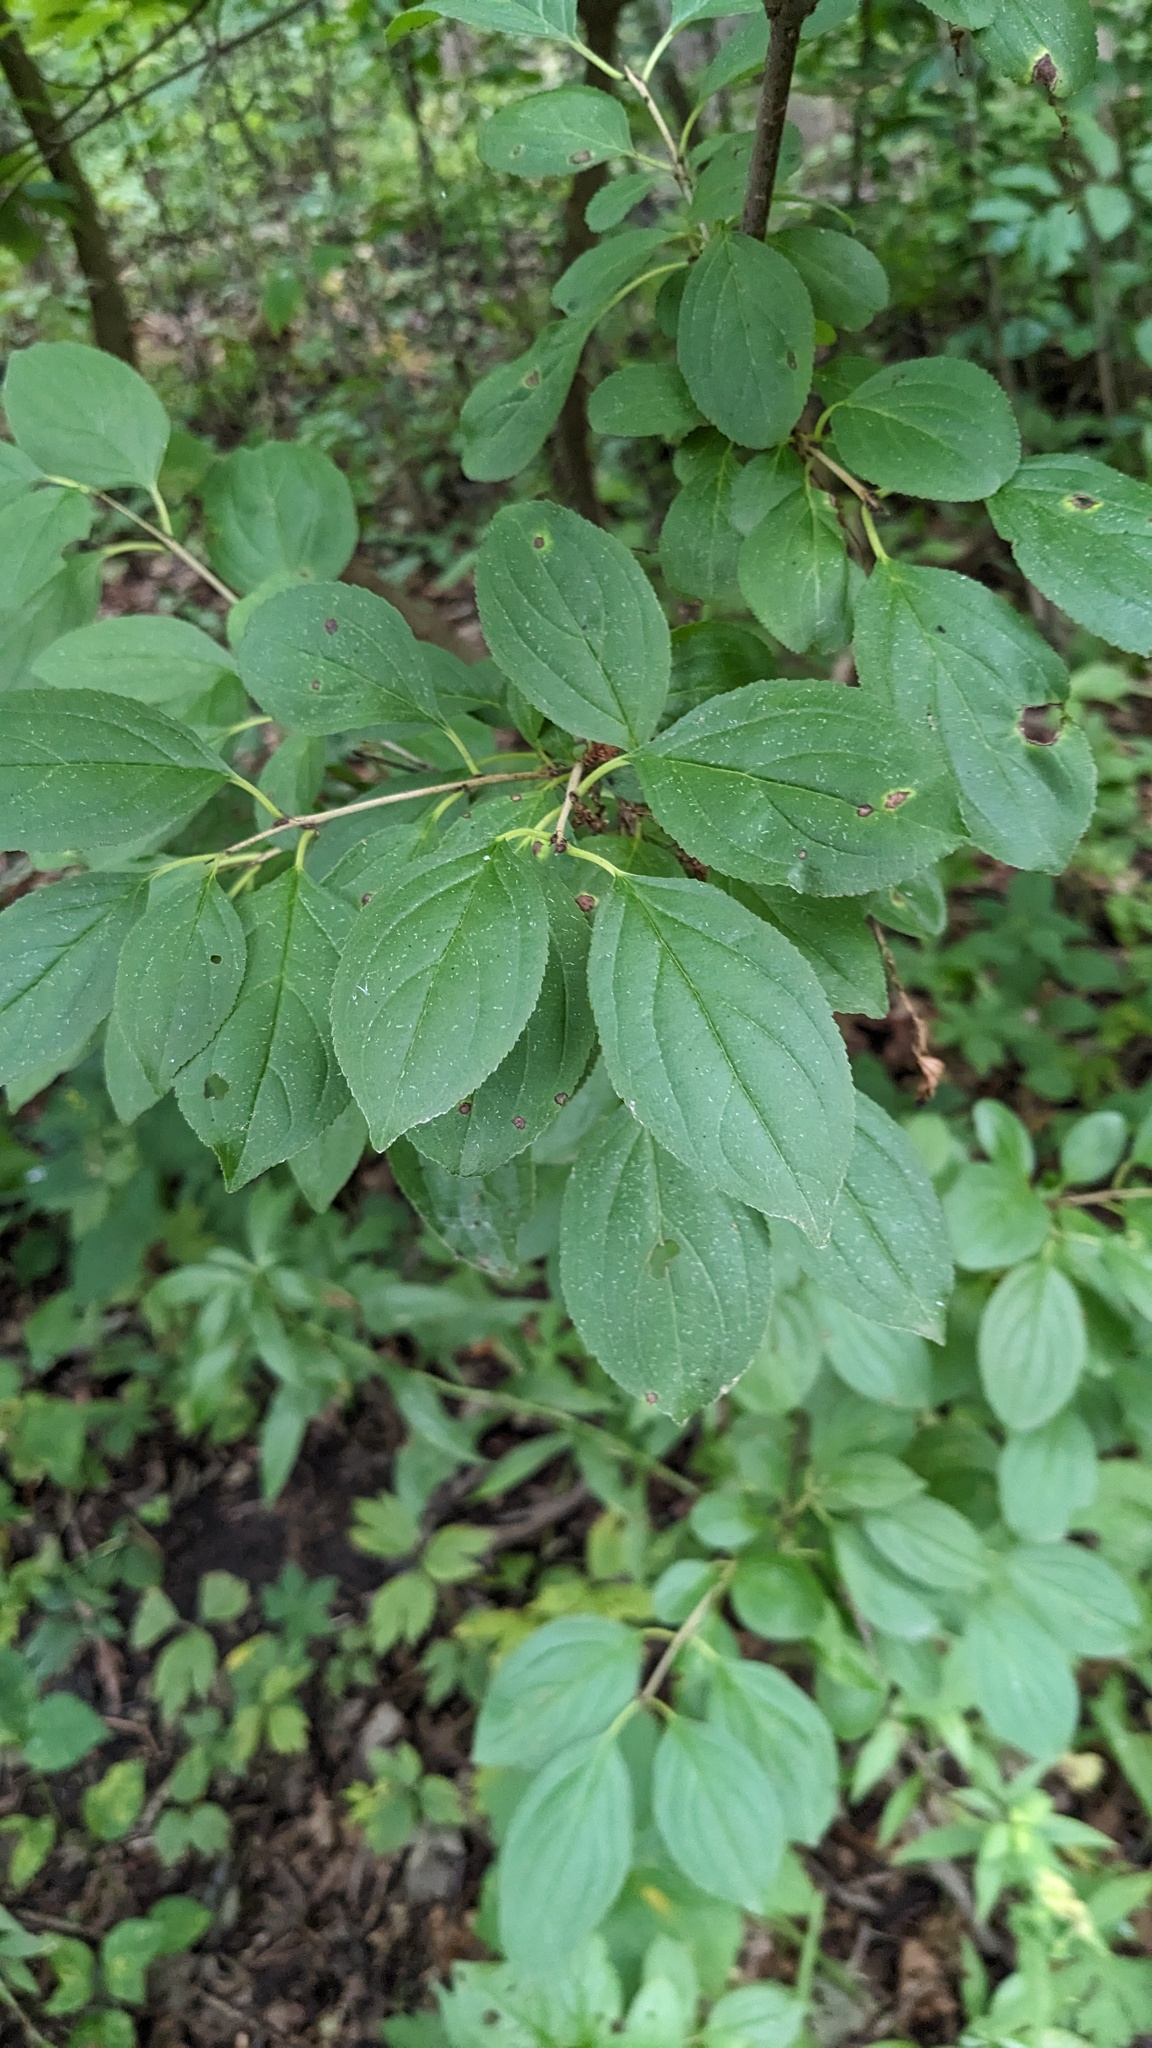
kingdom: Plantae
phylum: Tracheophyta
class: Magnoliopsida
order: Rosales
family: Rhamnaceae
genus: Rhamnus
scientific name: Rhamnus cathartica
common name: Common buckthorn
